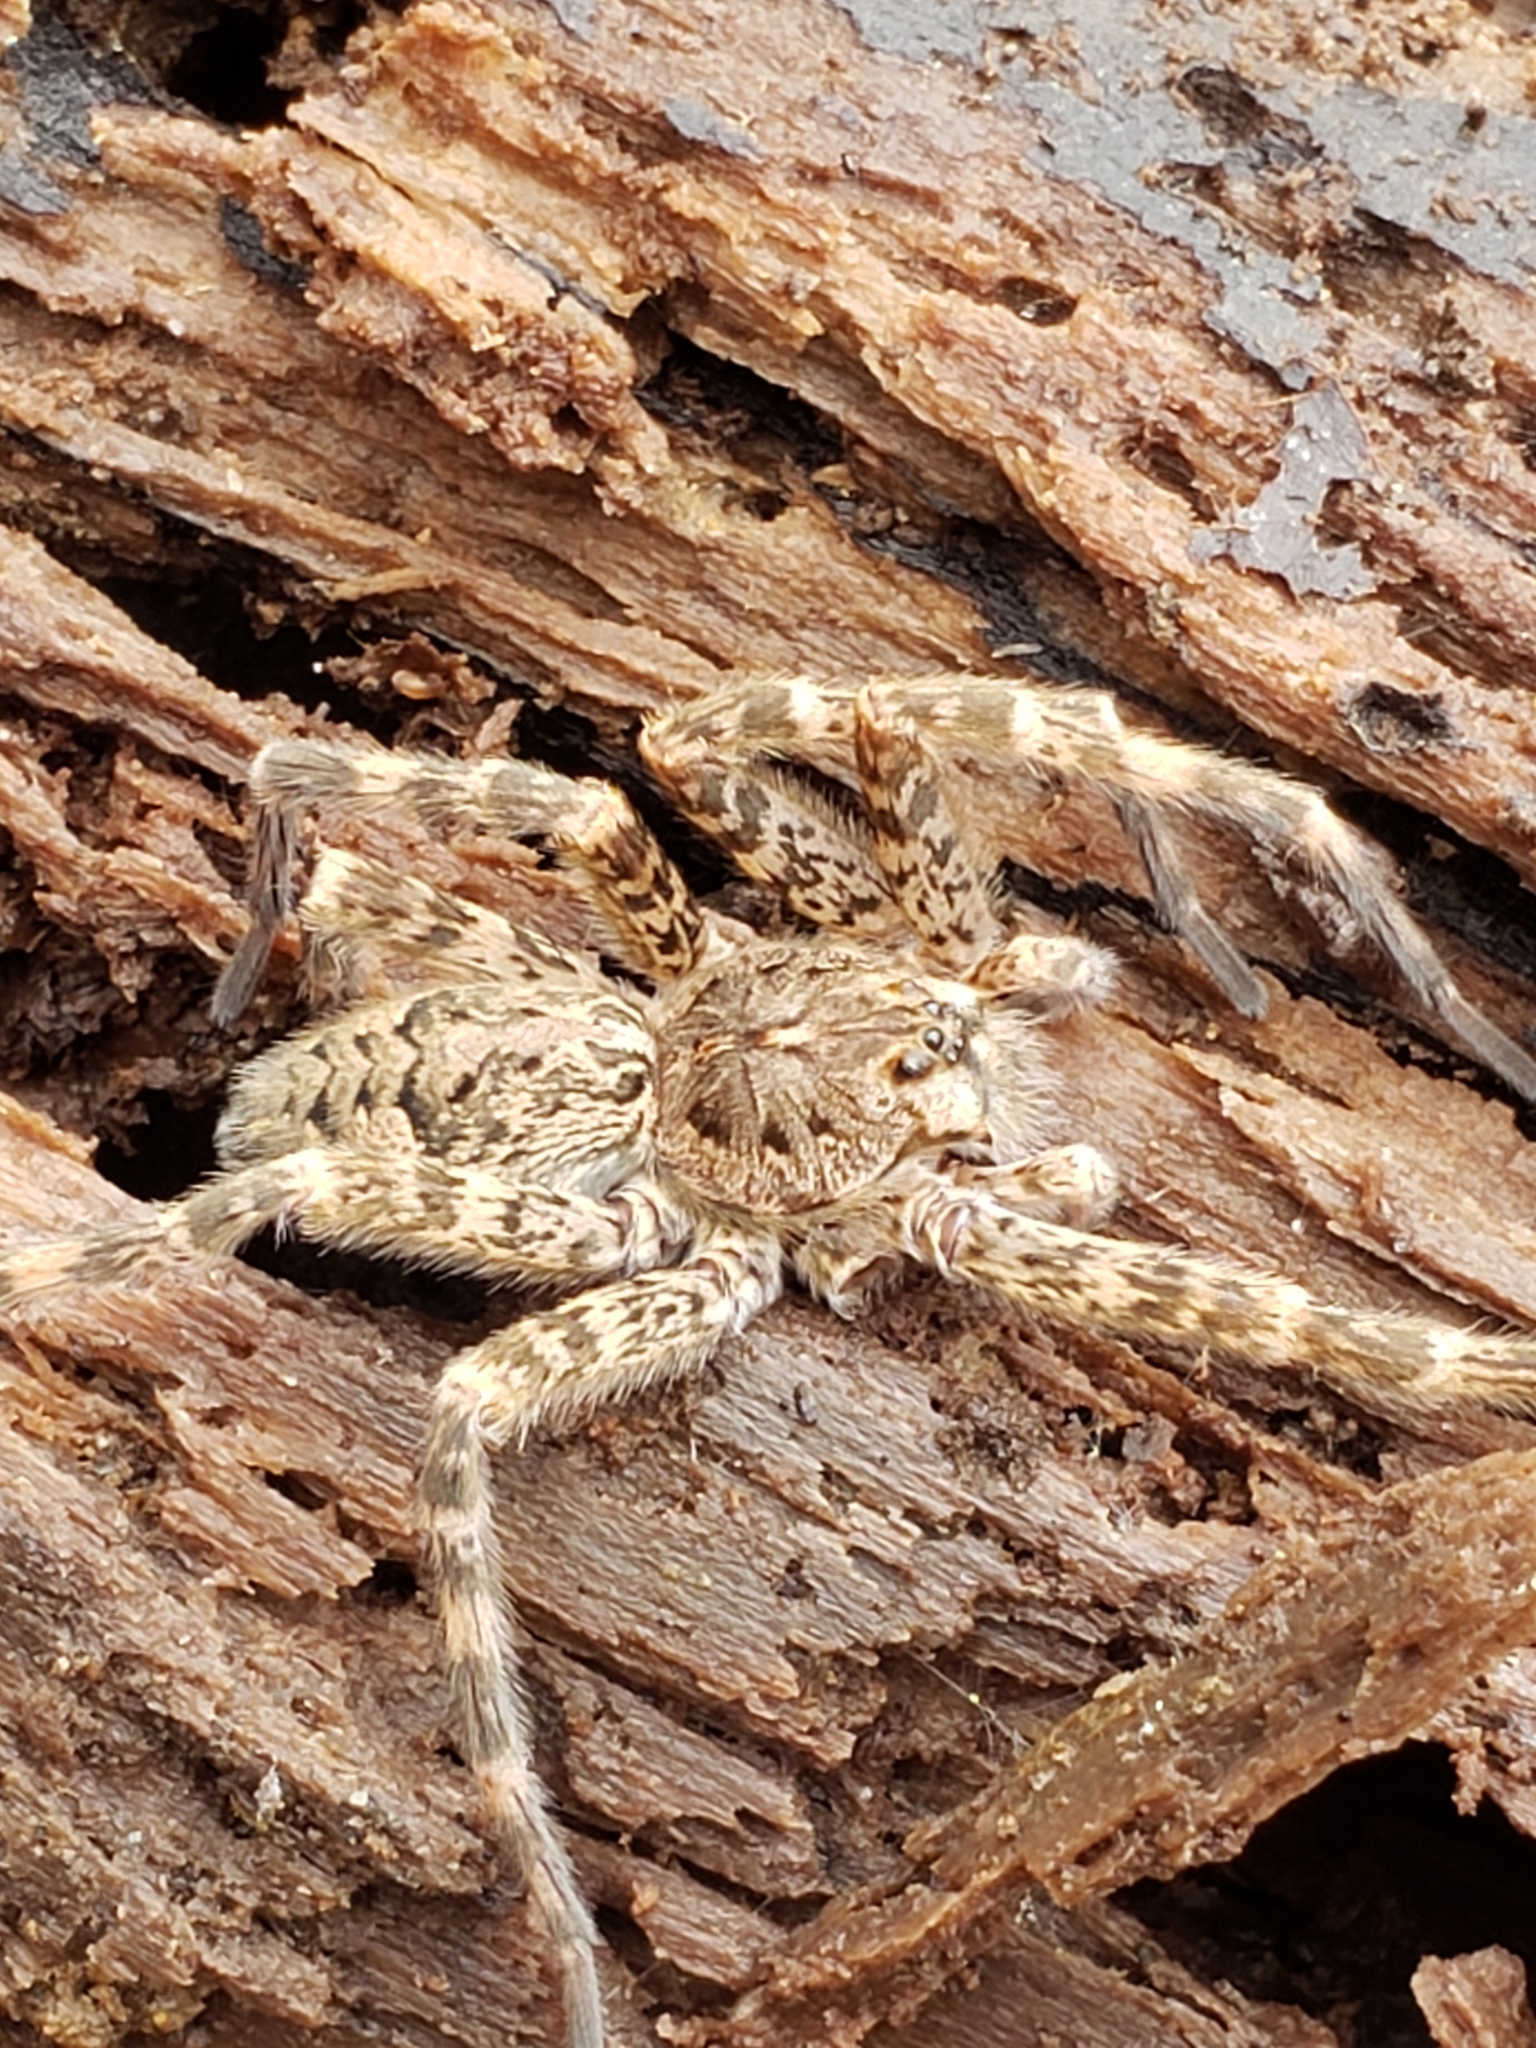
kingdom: Animalia
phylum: Arthropoda
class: Arachnida
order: Araneae
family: Pisauridae
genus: Dolomedes
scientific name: Dolomedes tenebrosus
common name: Dark fishing spider
